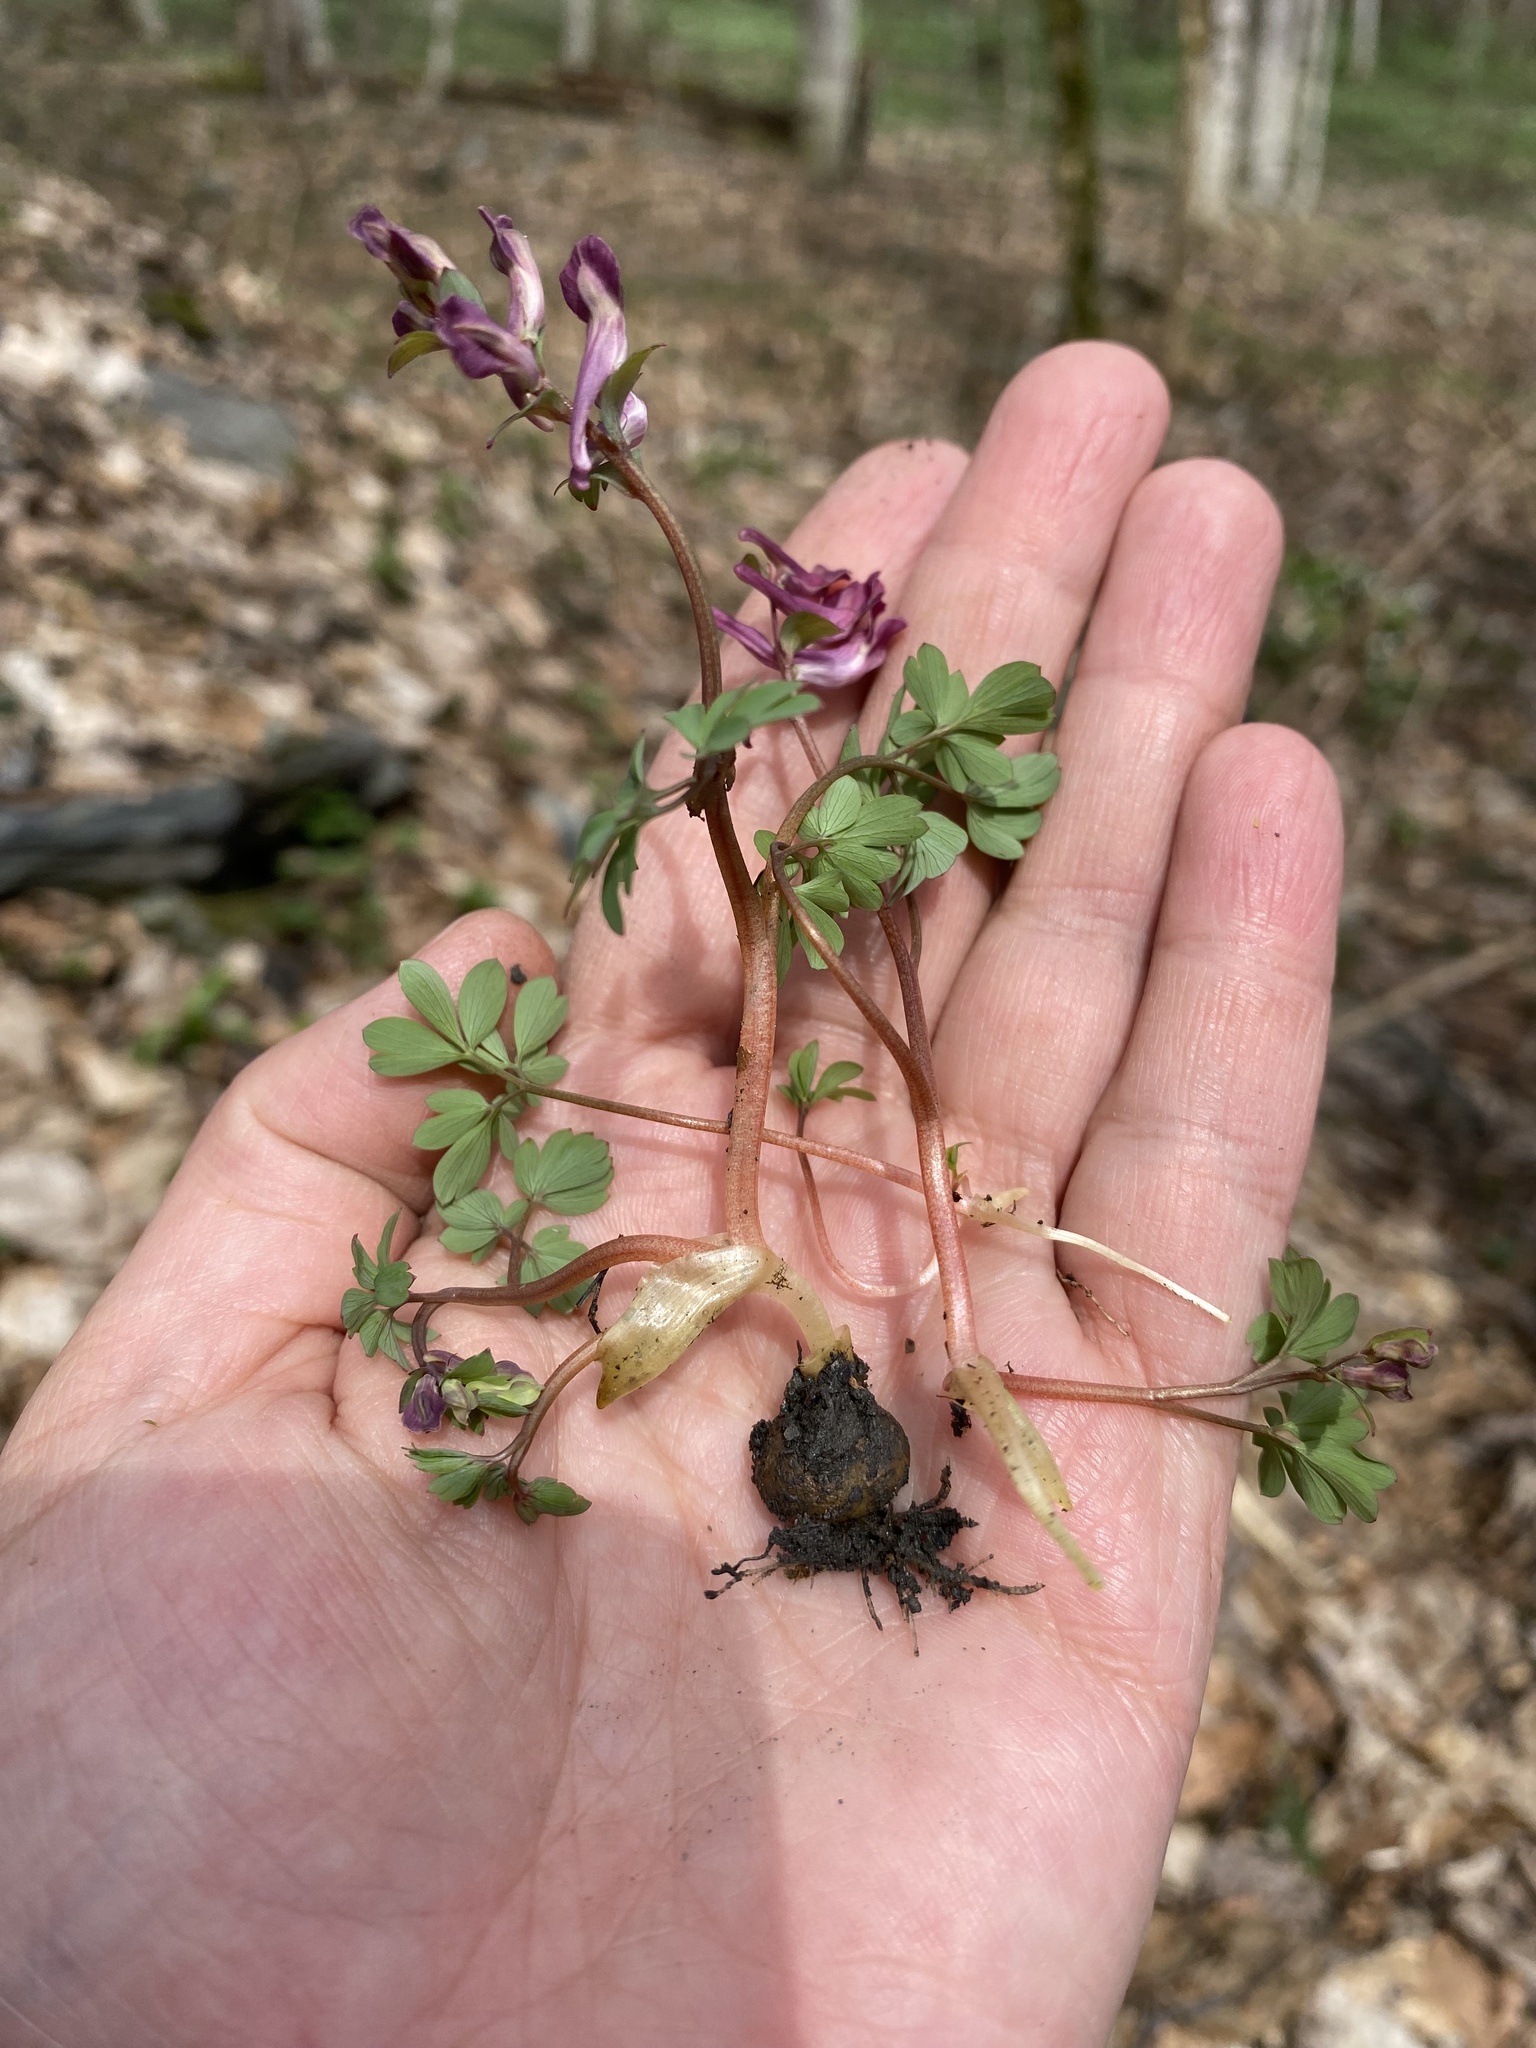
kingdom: Plantae
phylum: Tracheophyta
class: Magnoliopsida
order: Ranunculales
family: Papaveraceae
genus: Corydalis
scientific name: Corydalis caucasica
